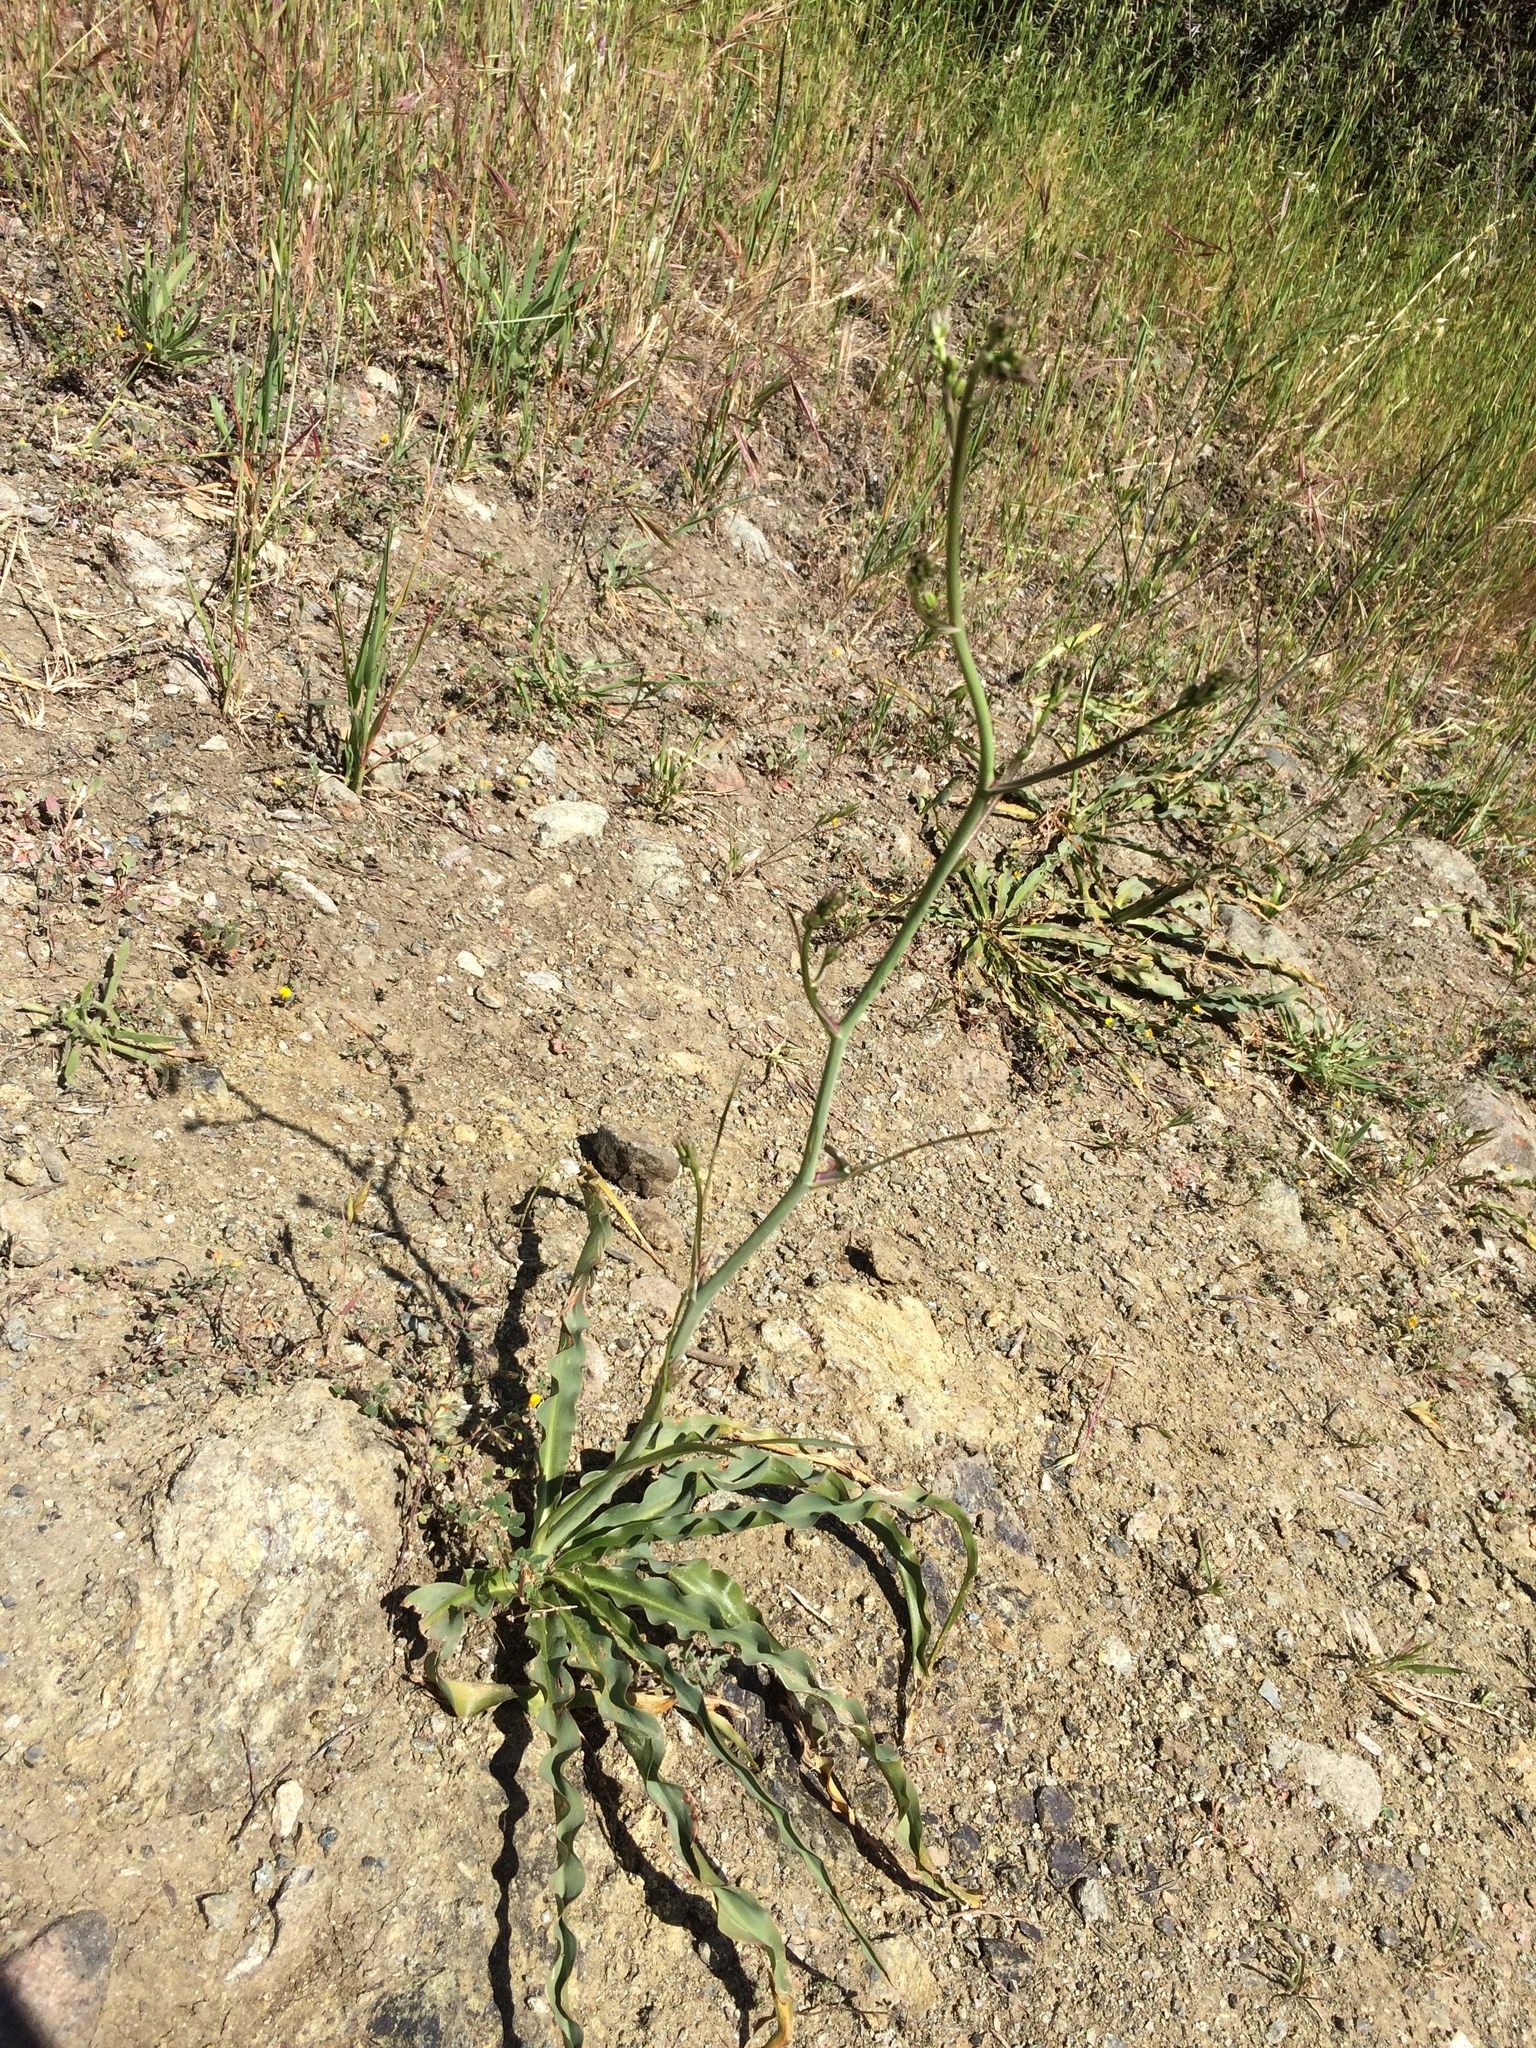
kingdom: Plantae
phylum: Tracheophyta
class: Liliopsida
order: Asparagales
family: Asparagaceae
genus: Chlorogalum
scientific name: Chlorogalum pomeridianum
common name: Amole
